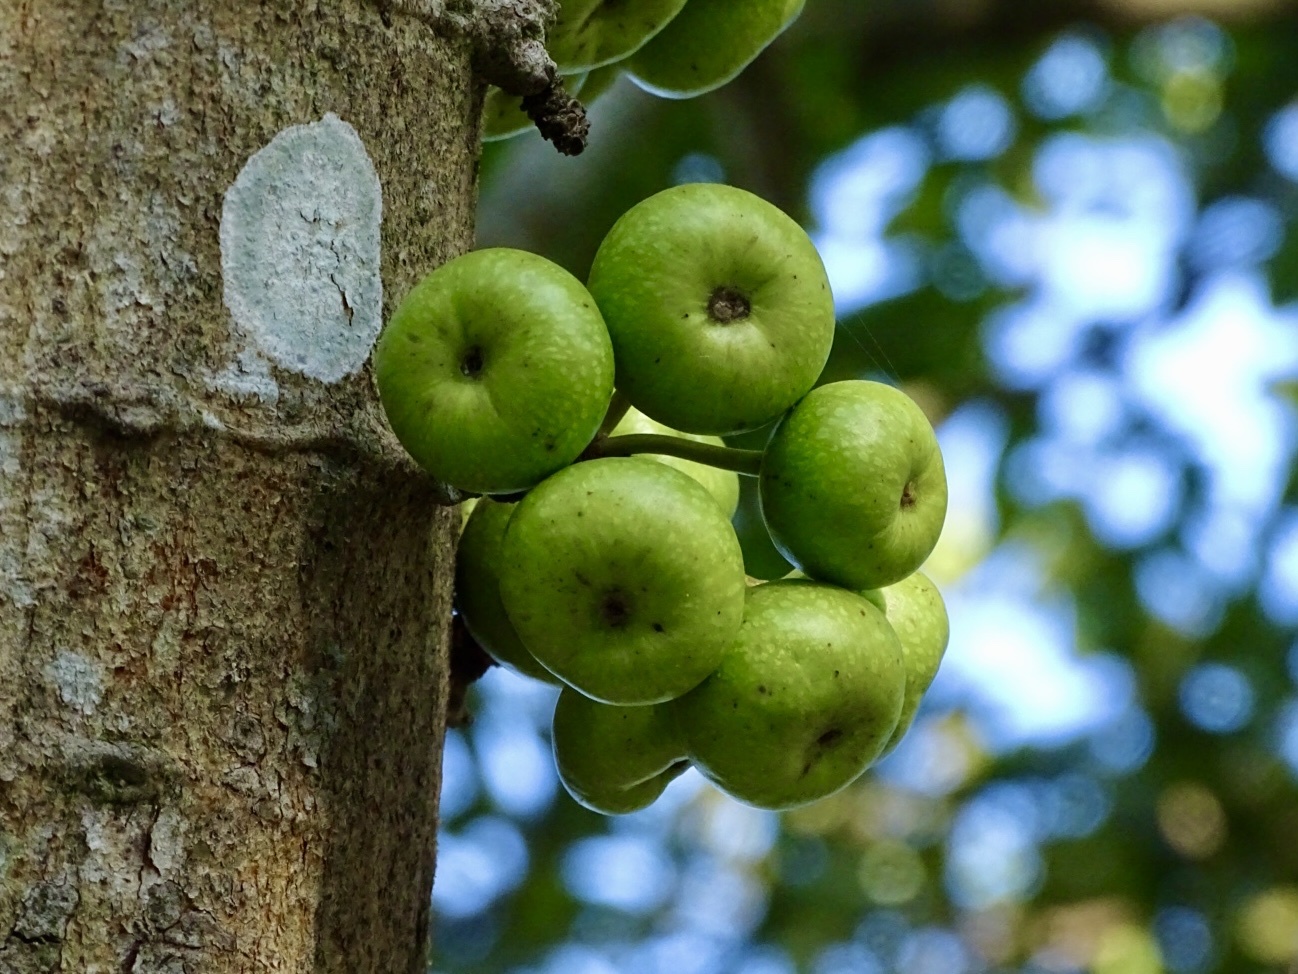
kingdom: Plantae
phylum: Tracheophyta
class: Magnoliopsida
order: Rosales
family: Moraceae
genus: Ficus
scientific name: Ficus variegata
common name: Variegated fig
